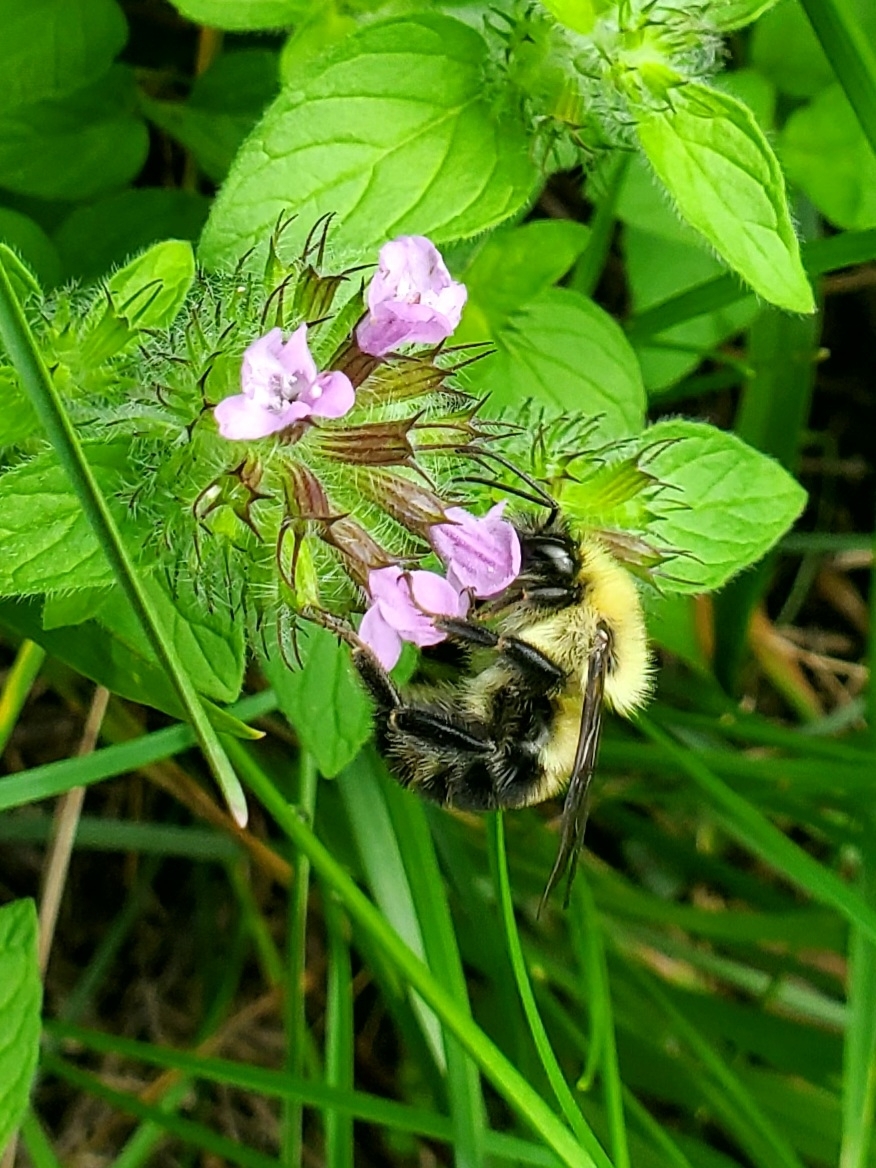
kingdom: Animalia
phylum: Arthropoda
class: Insecta
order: Hymenoptera
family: Apidae
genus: Bombus
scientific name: Bombus bimaculatus
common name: Two-spotted bumble bee
